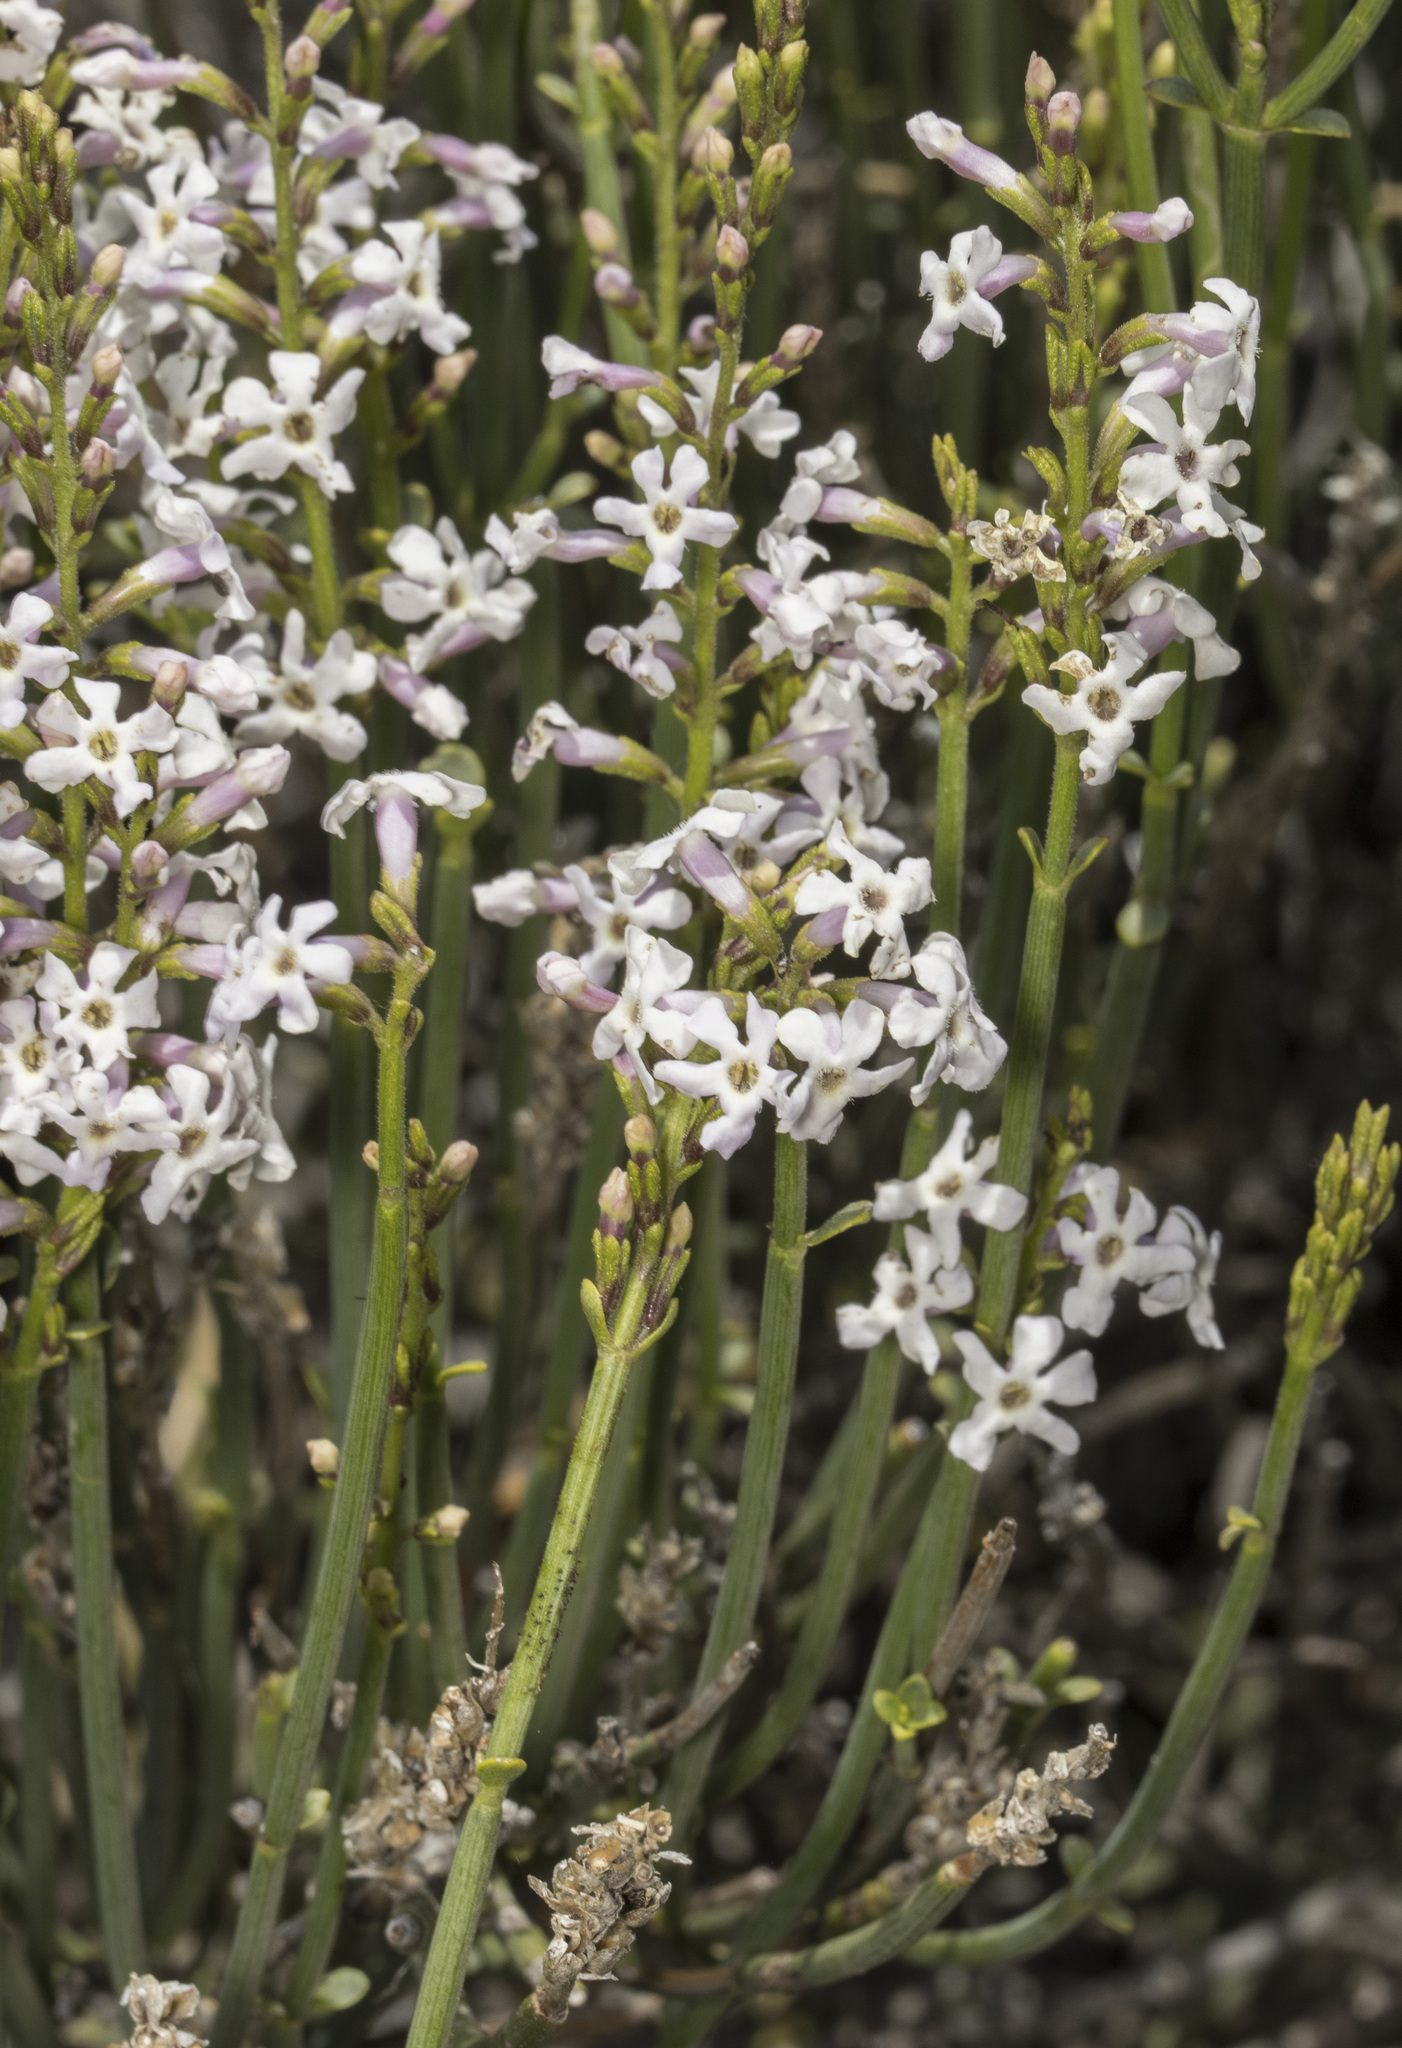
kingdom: Plantae
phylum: Tracheophyta
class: Magnoliopsida
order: Lamiales
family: Verbenaceae
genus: Junellia
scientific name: Junellia spathulata
